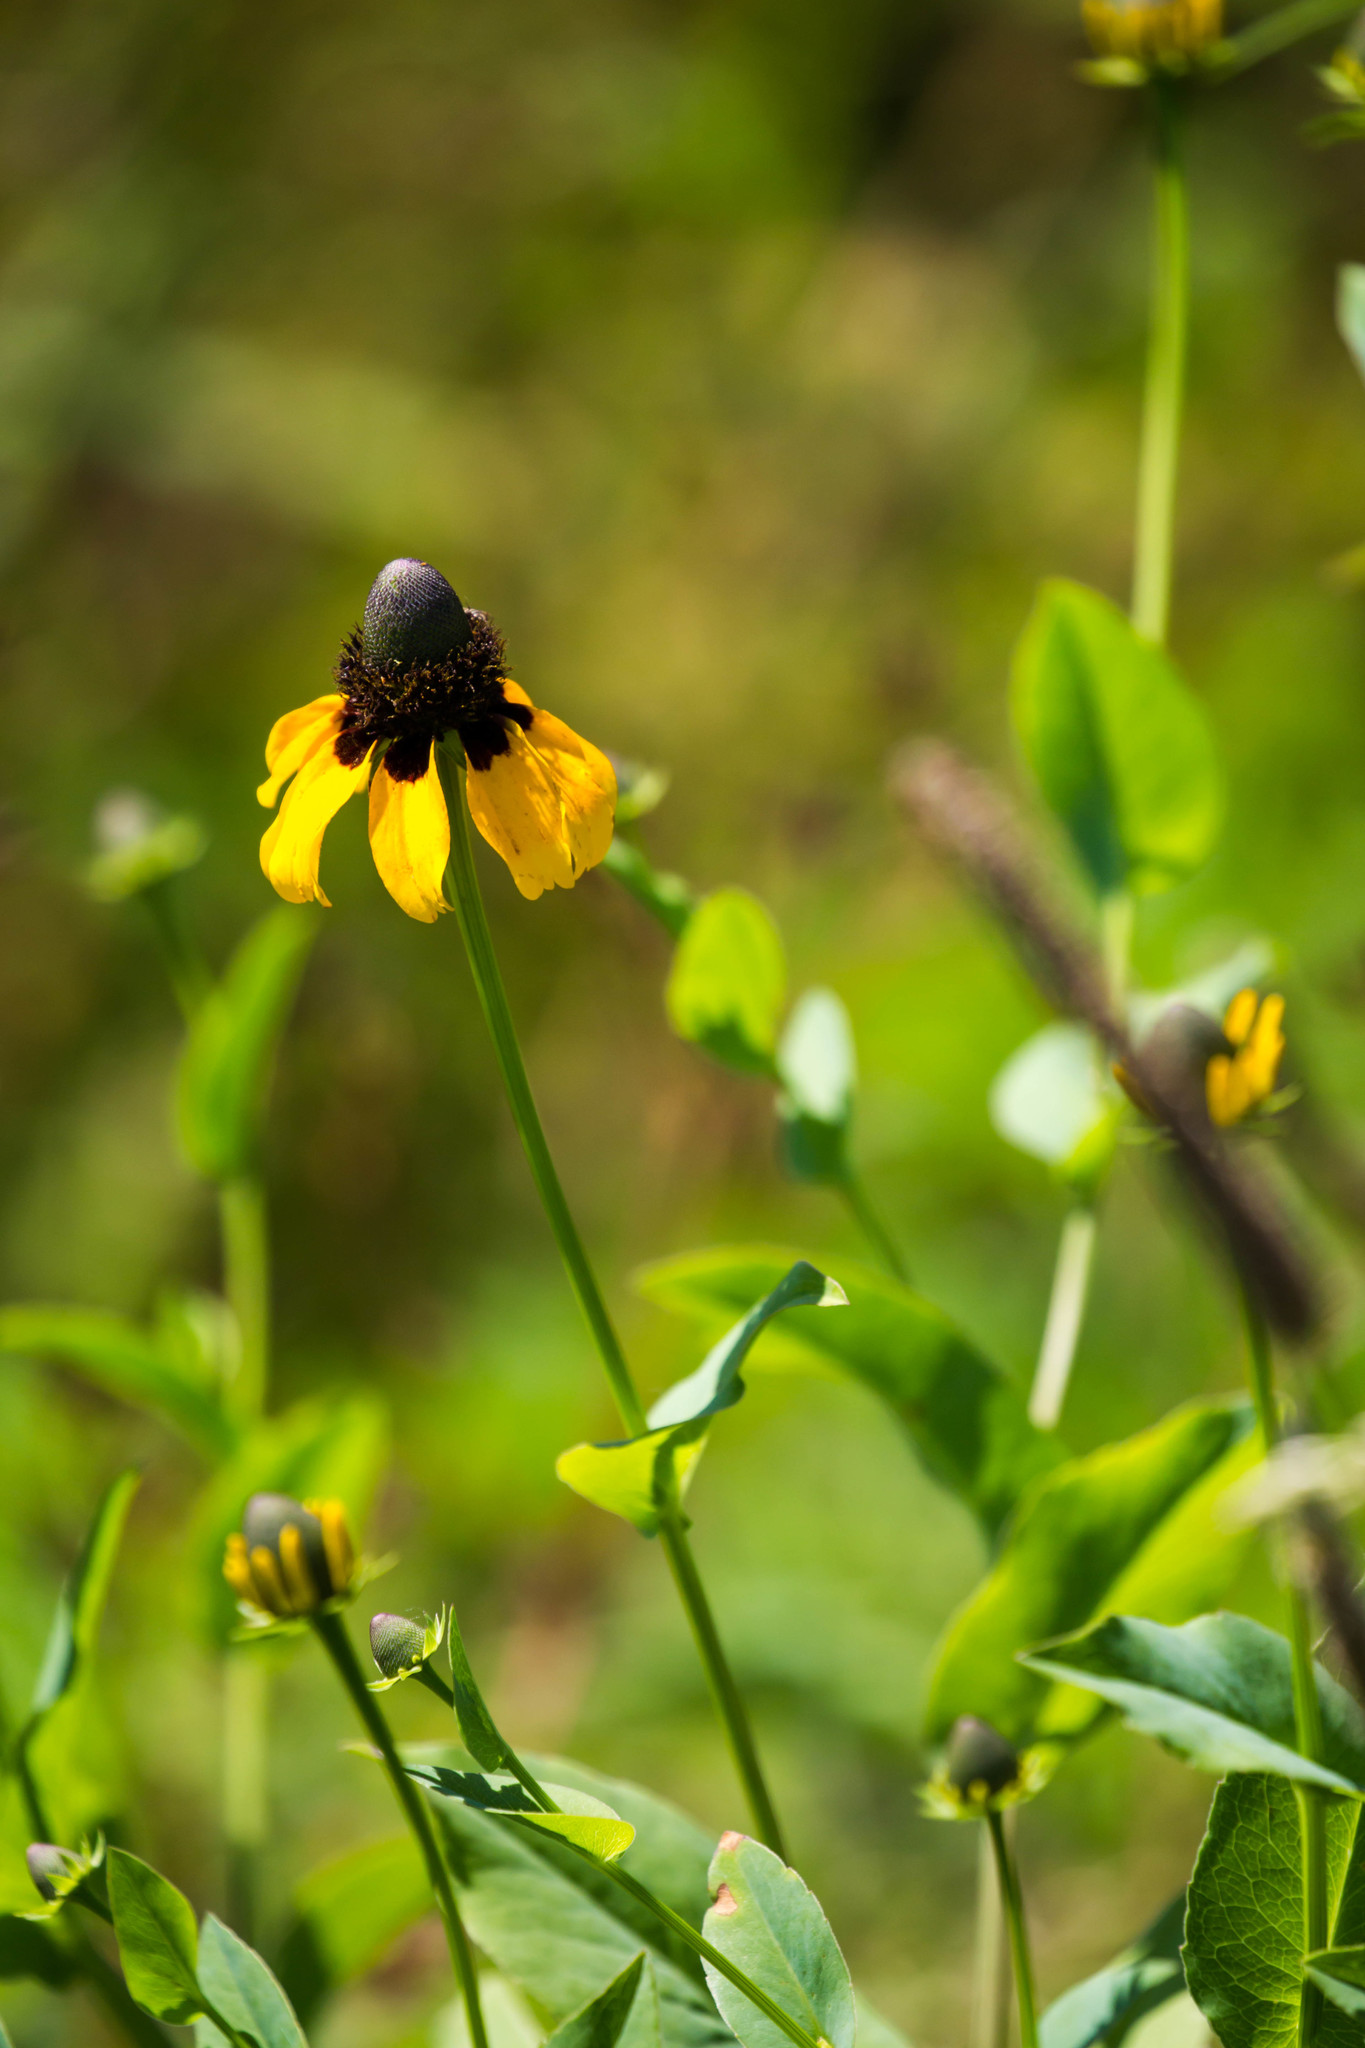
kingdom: Plantae
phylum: Tracheophyta
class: Magnoliopsida
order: Asterales
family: Asteraceae
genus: Rudbeckia
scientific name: Rudbeckia amplexicaulis
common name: Clasping-leaf coneflower
